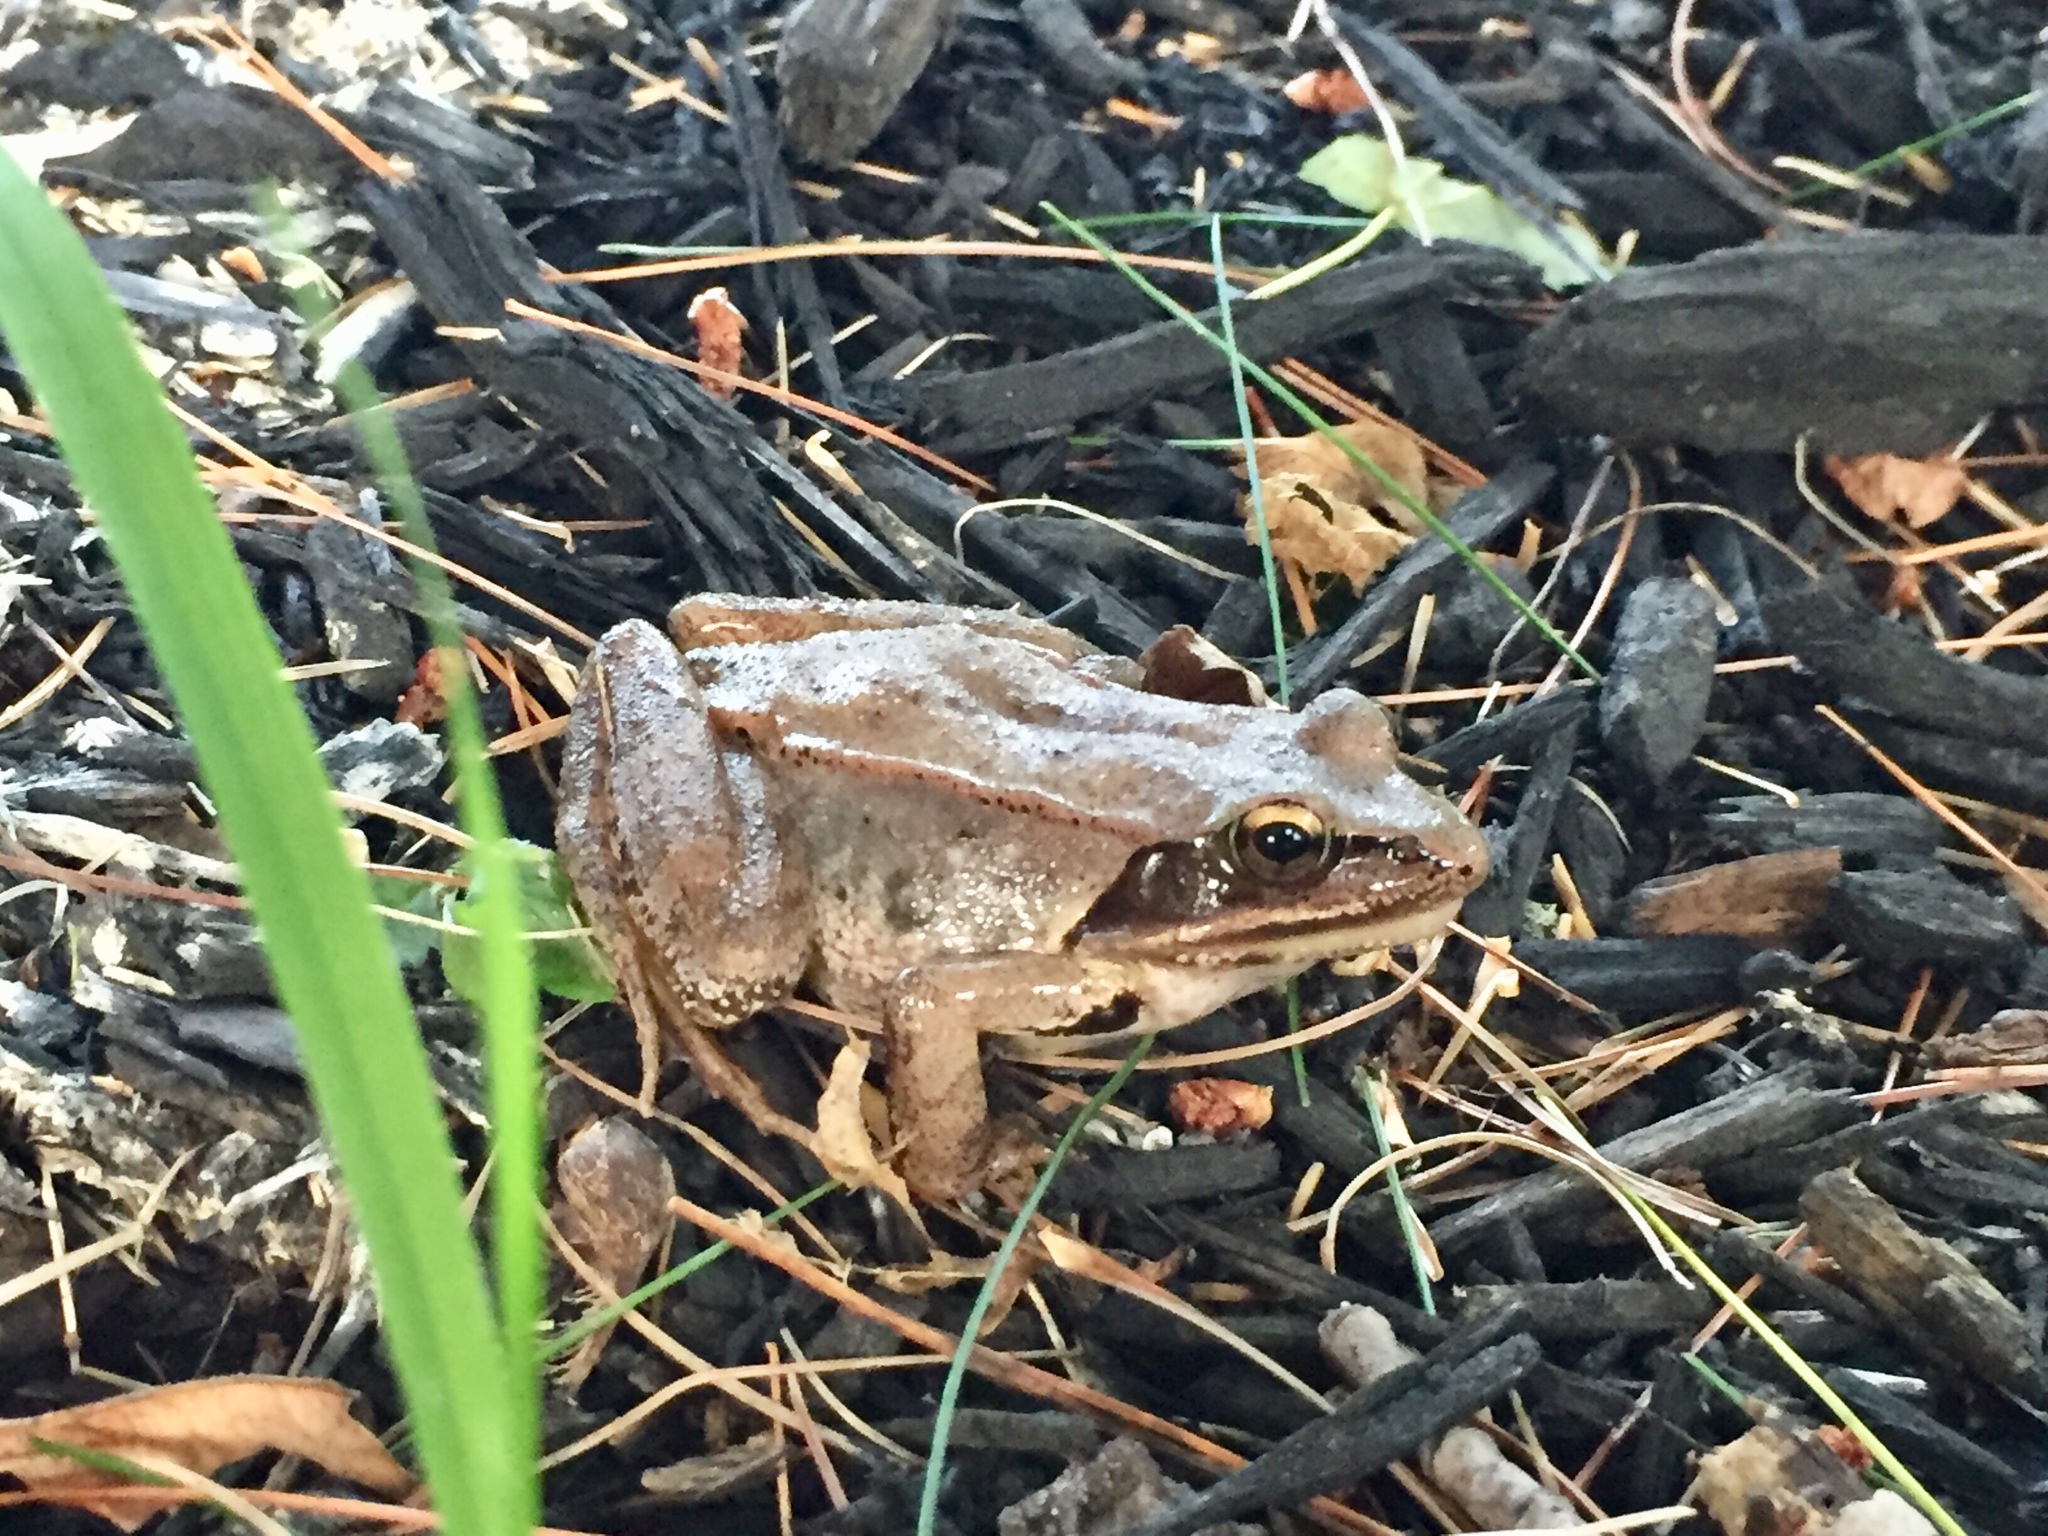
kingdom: Animalia
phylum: Chordata
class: Amphibia
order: Anura
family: Ranidae
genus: Lithobates
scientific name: Lithobates sylvaticus
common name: Wood frog
